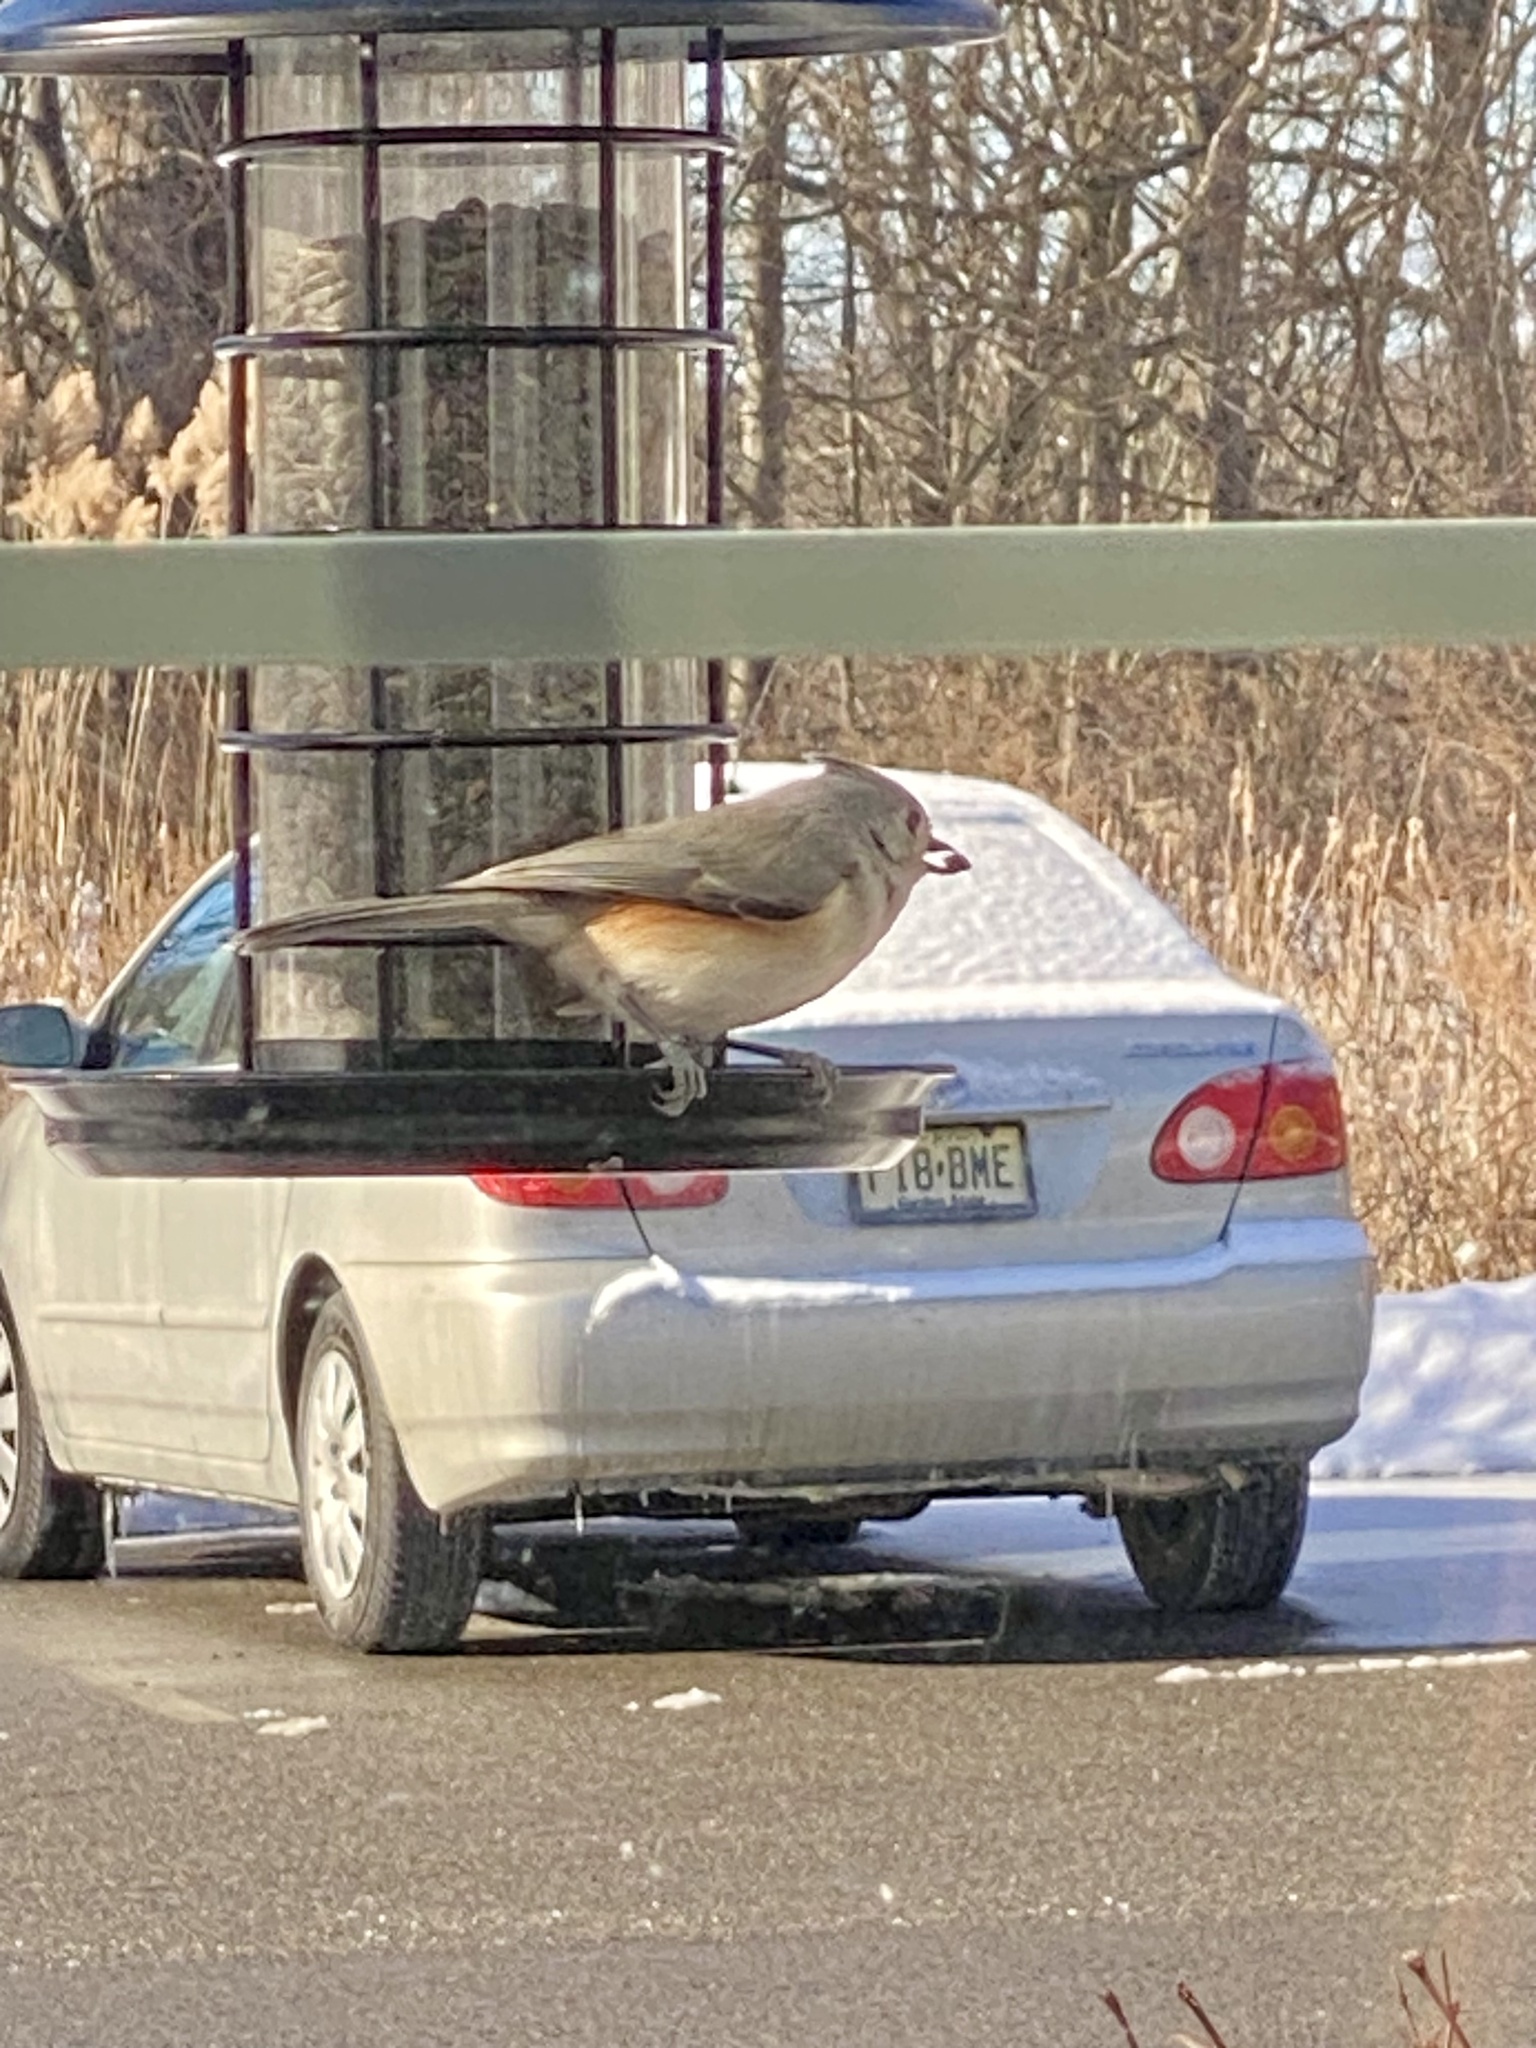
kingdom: Animalia
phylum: Chordata
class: Aves
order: Passeriformes
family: Paridae
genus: Baeolophus
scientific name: Baeolophus bicolor
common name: Tufted titmouse
